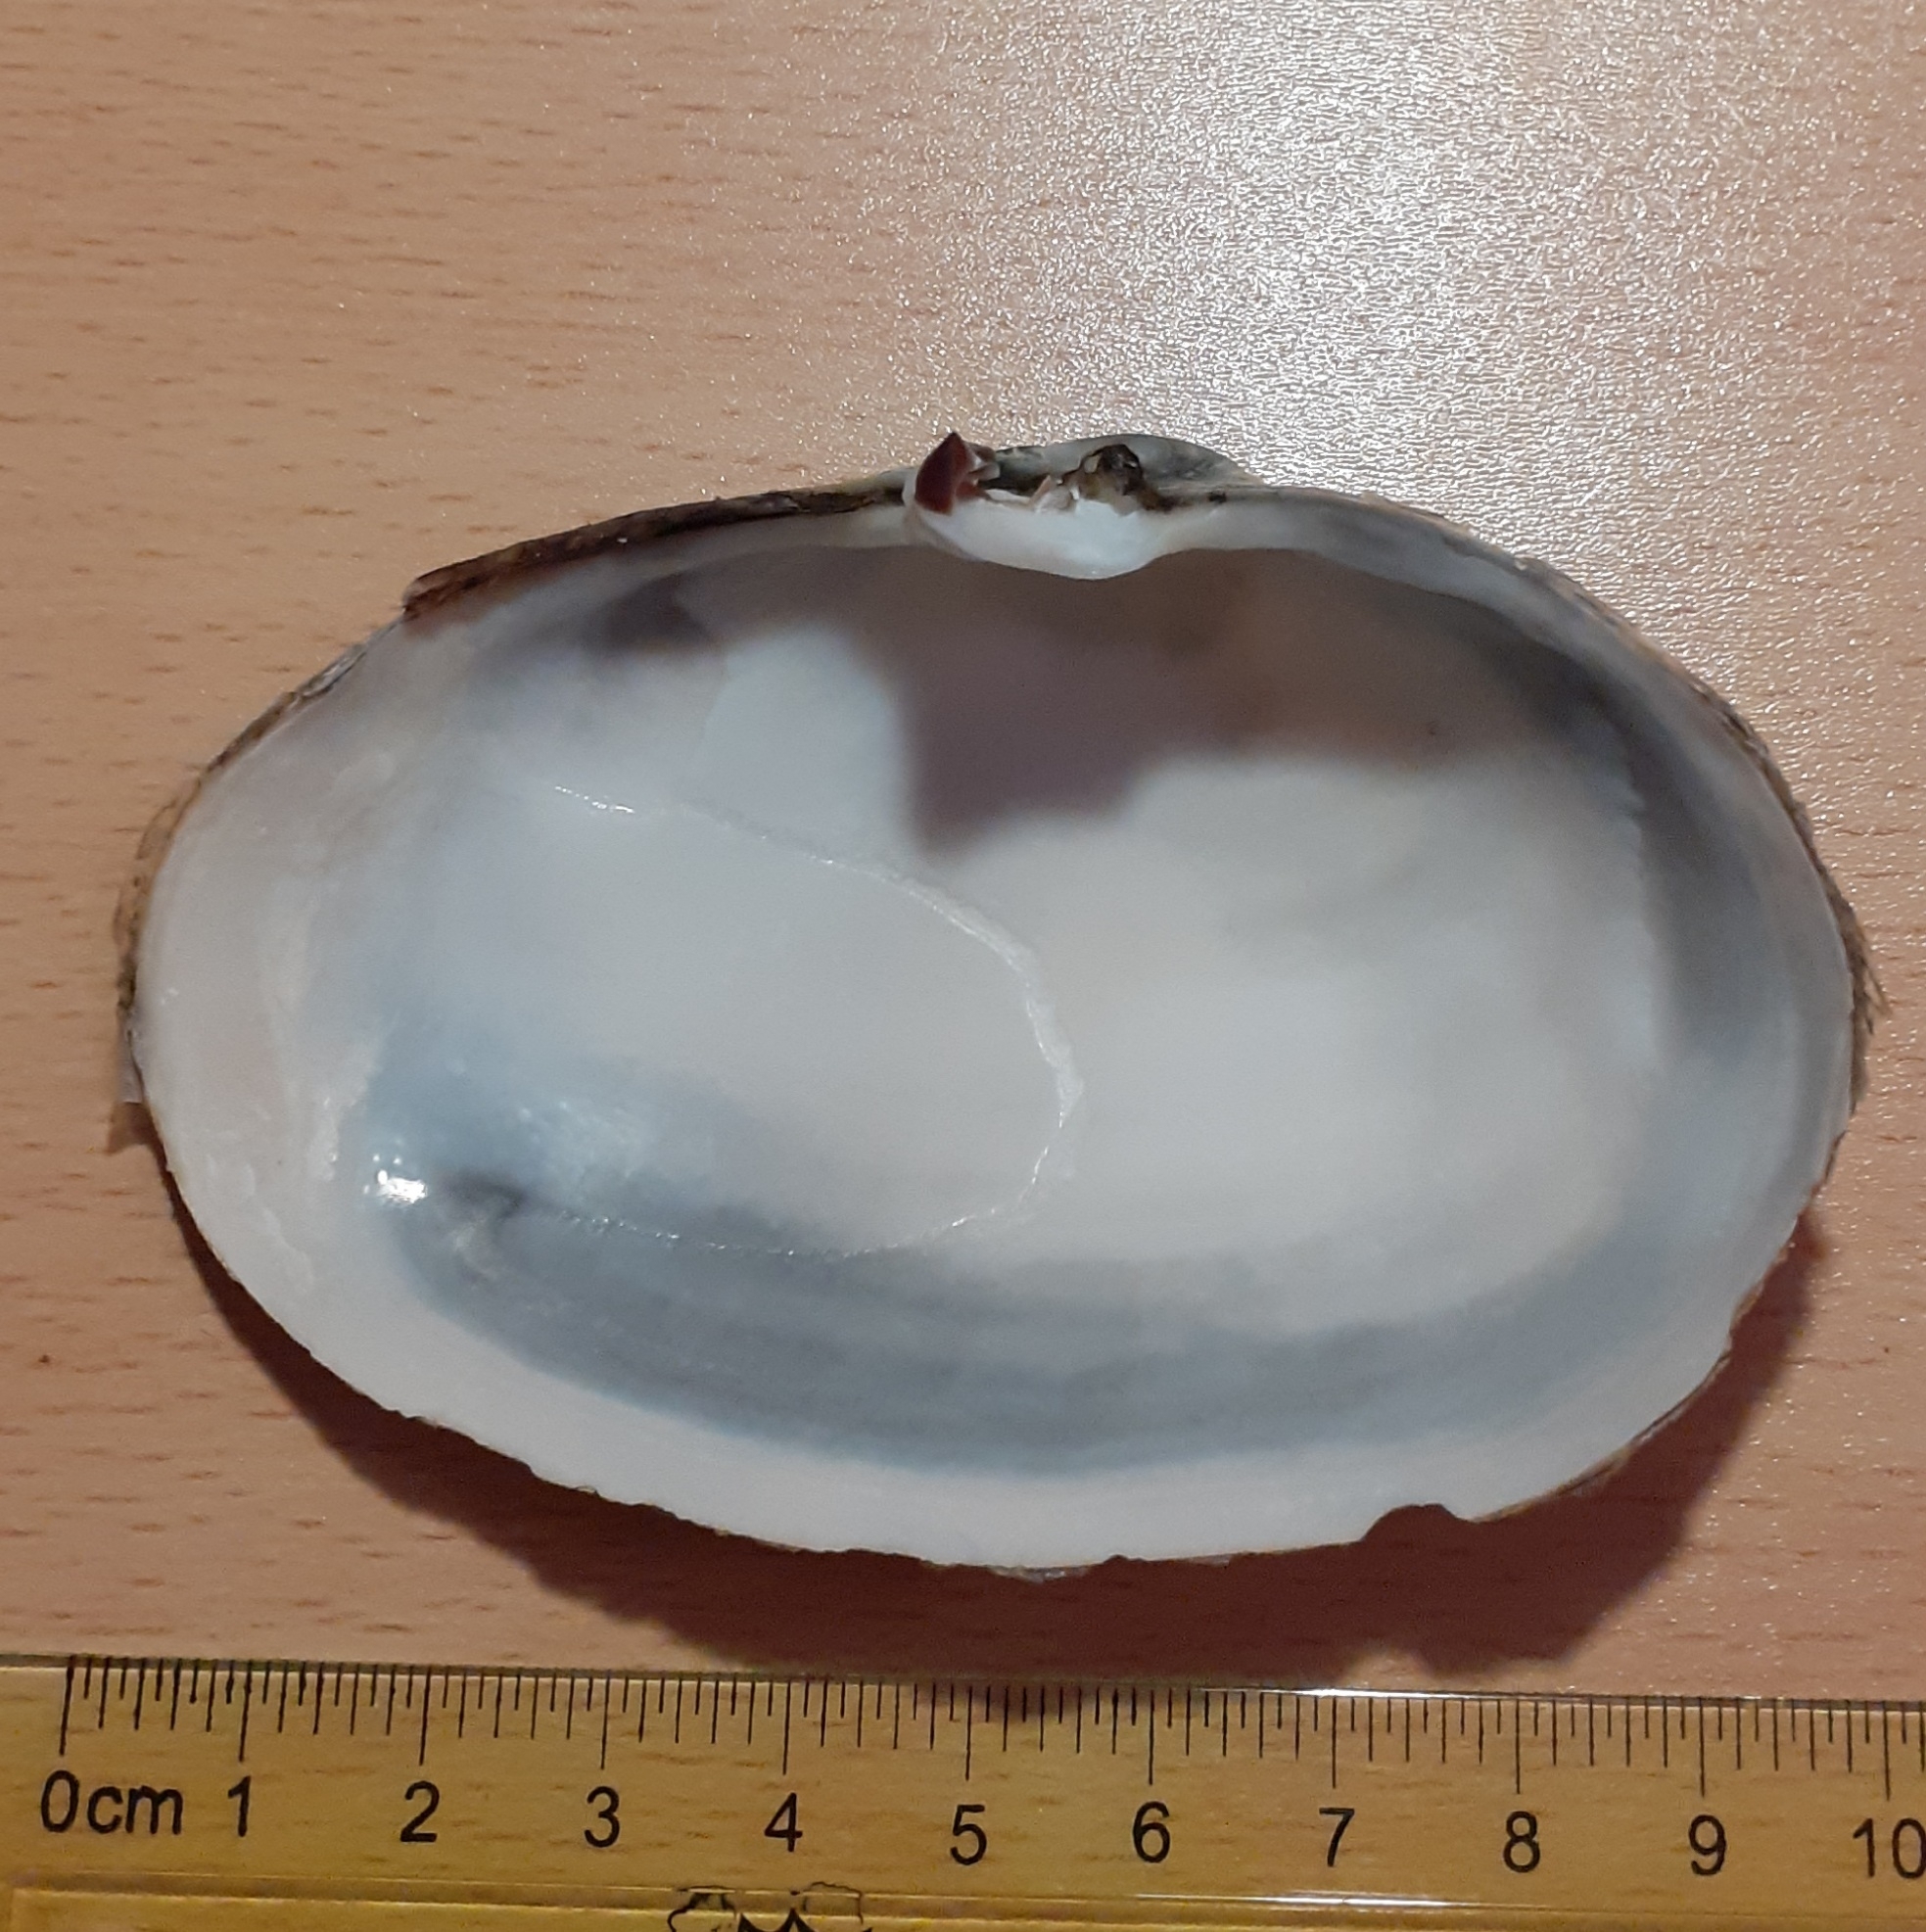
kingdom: Animalia
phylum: Mollusca
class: Bivalvia
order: Myida
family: Myidae
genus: Mya
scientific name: Mya arenaria
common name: Soft-shelled clam
